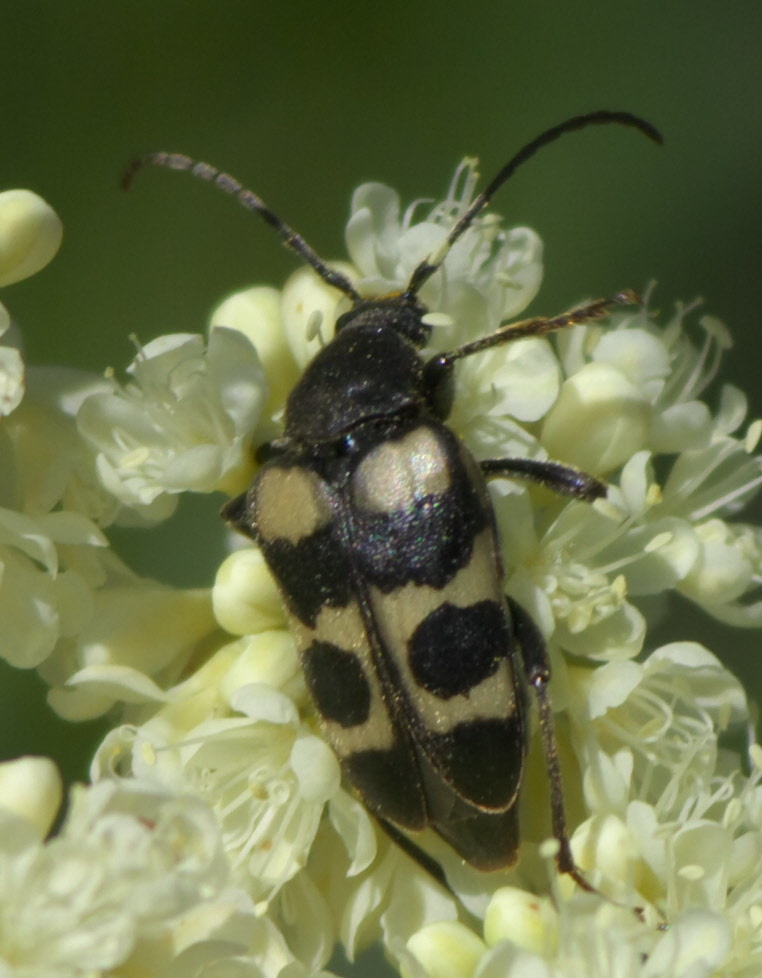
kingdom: Animalia
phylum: Arthropoda
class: Insecta
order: Coleoptera
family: Cerambycidae
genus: Judolia
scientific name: Judolia gaurotoides
